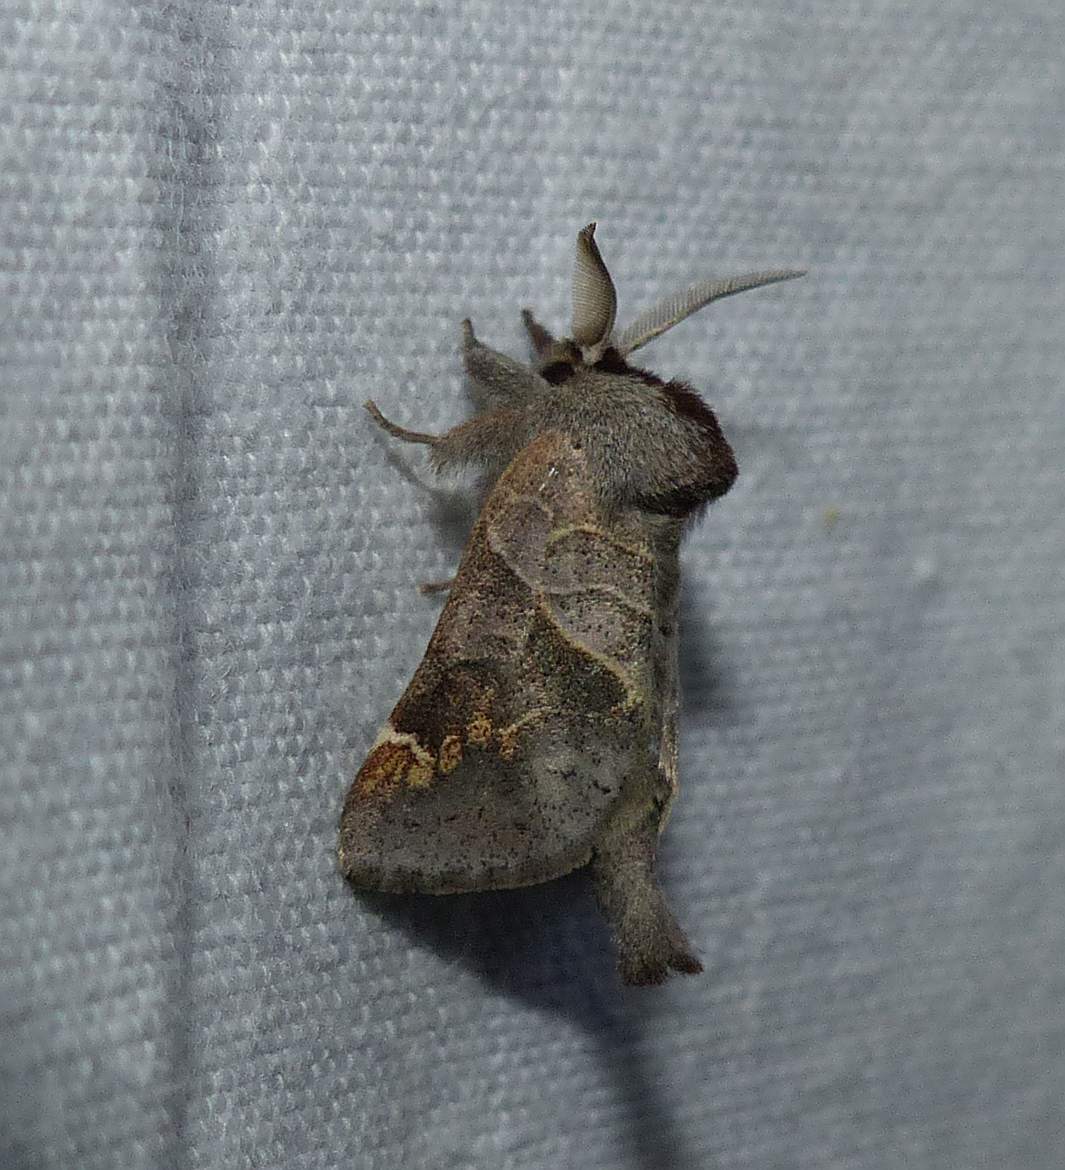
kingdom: Animalia
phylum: Arthropoda
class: Insecta
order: Lepidoptera
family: Notodontidae
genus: Clostera
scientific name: Clostera apicalis
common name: Apical prominent
